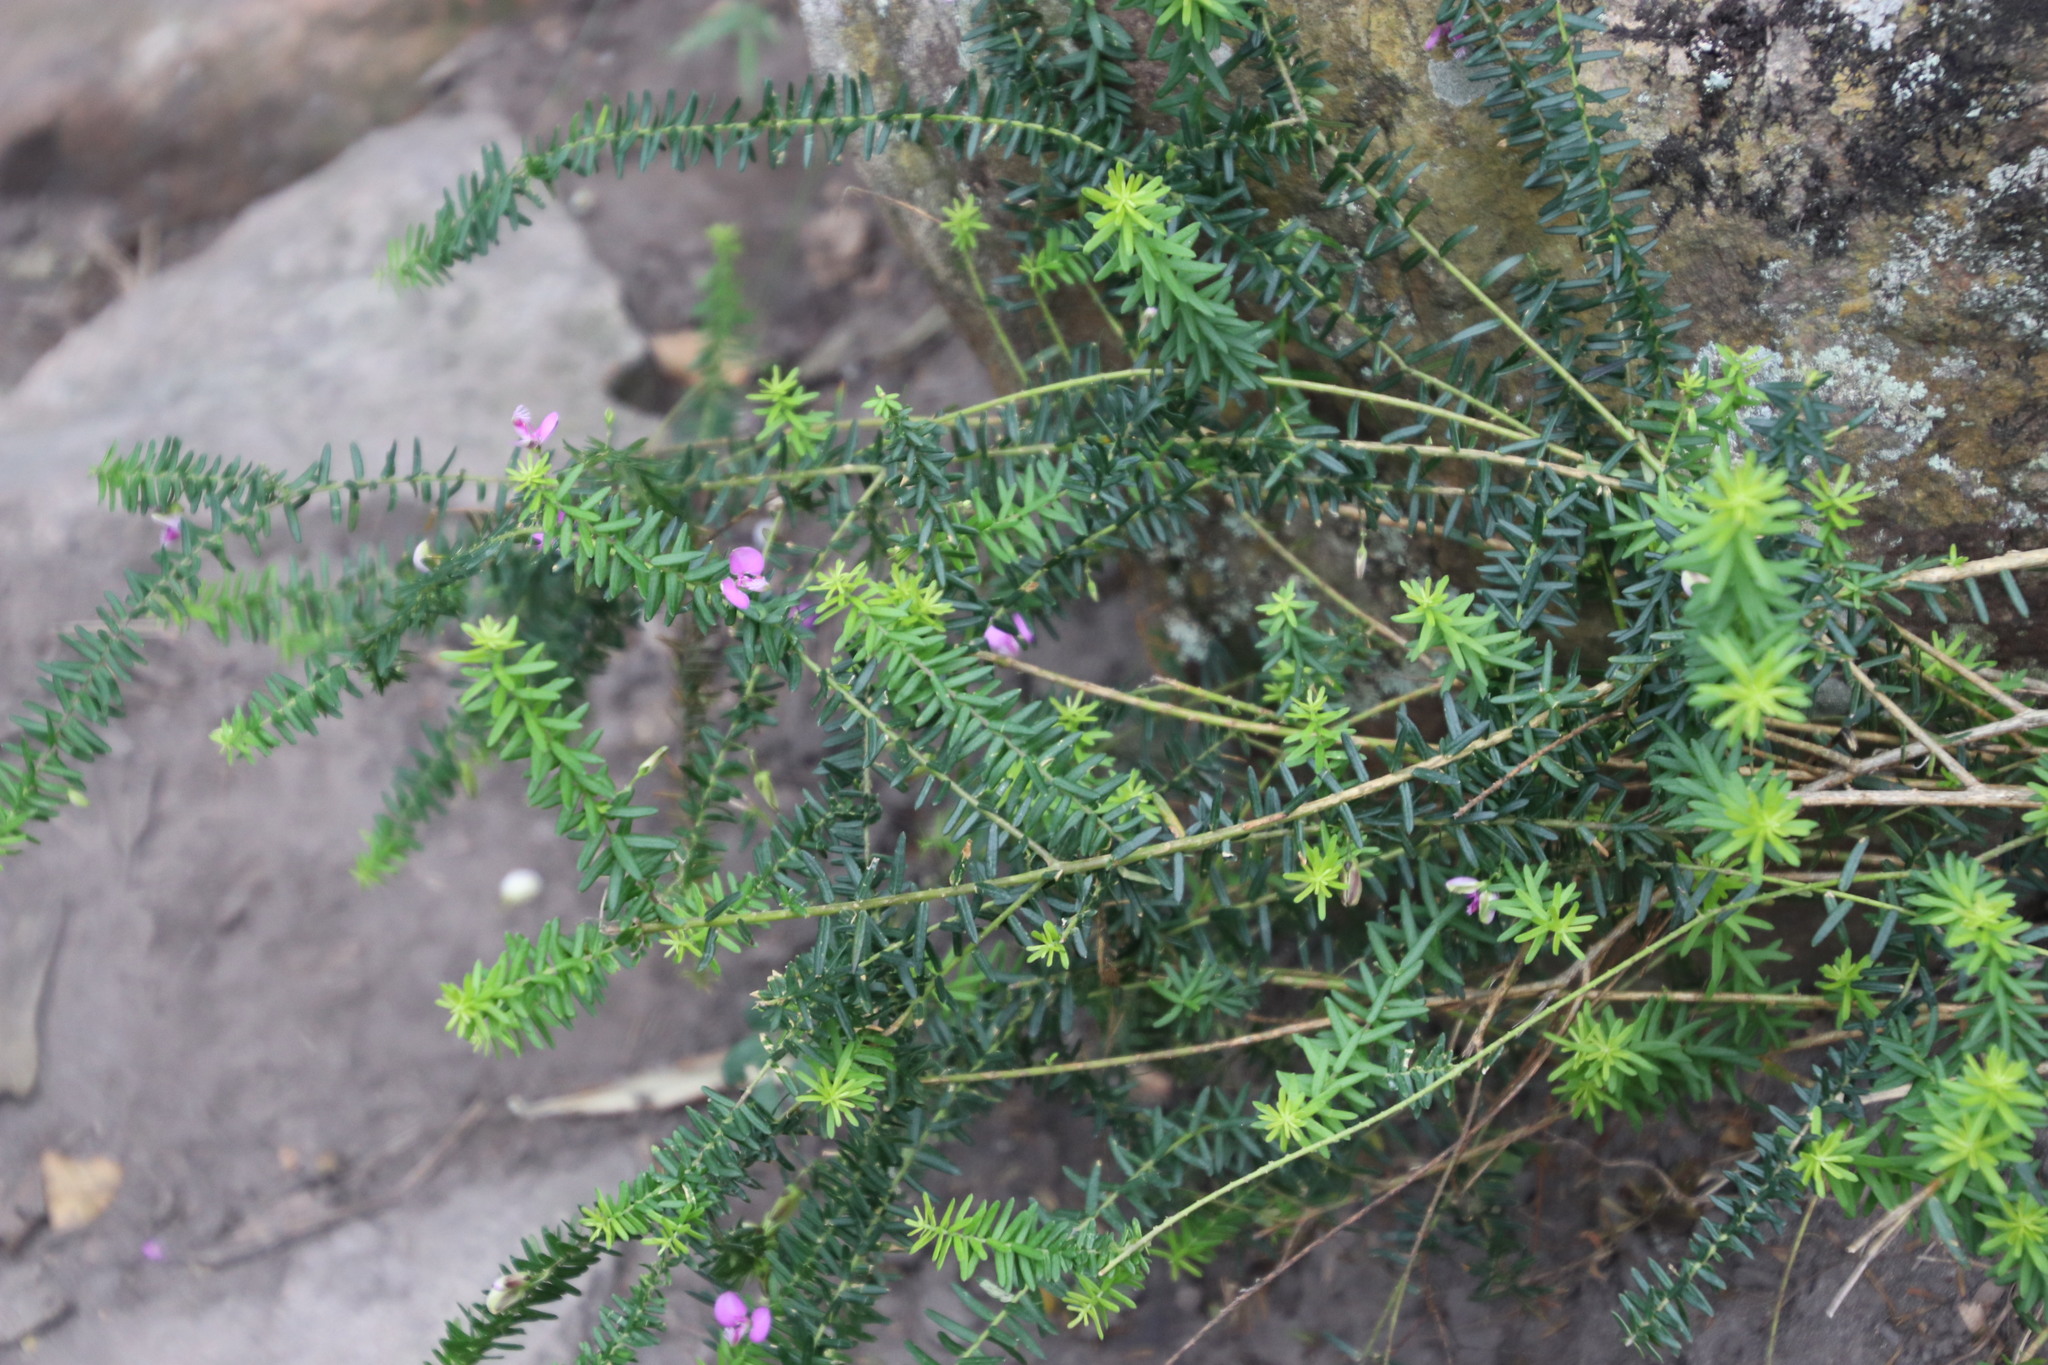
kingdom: Plantae
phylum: Tracheophyta
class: Magnoliopsida
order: Fabales
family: Polygalaceae
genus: Polygala
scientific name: Polygala gazensis
